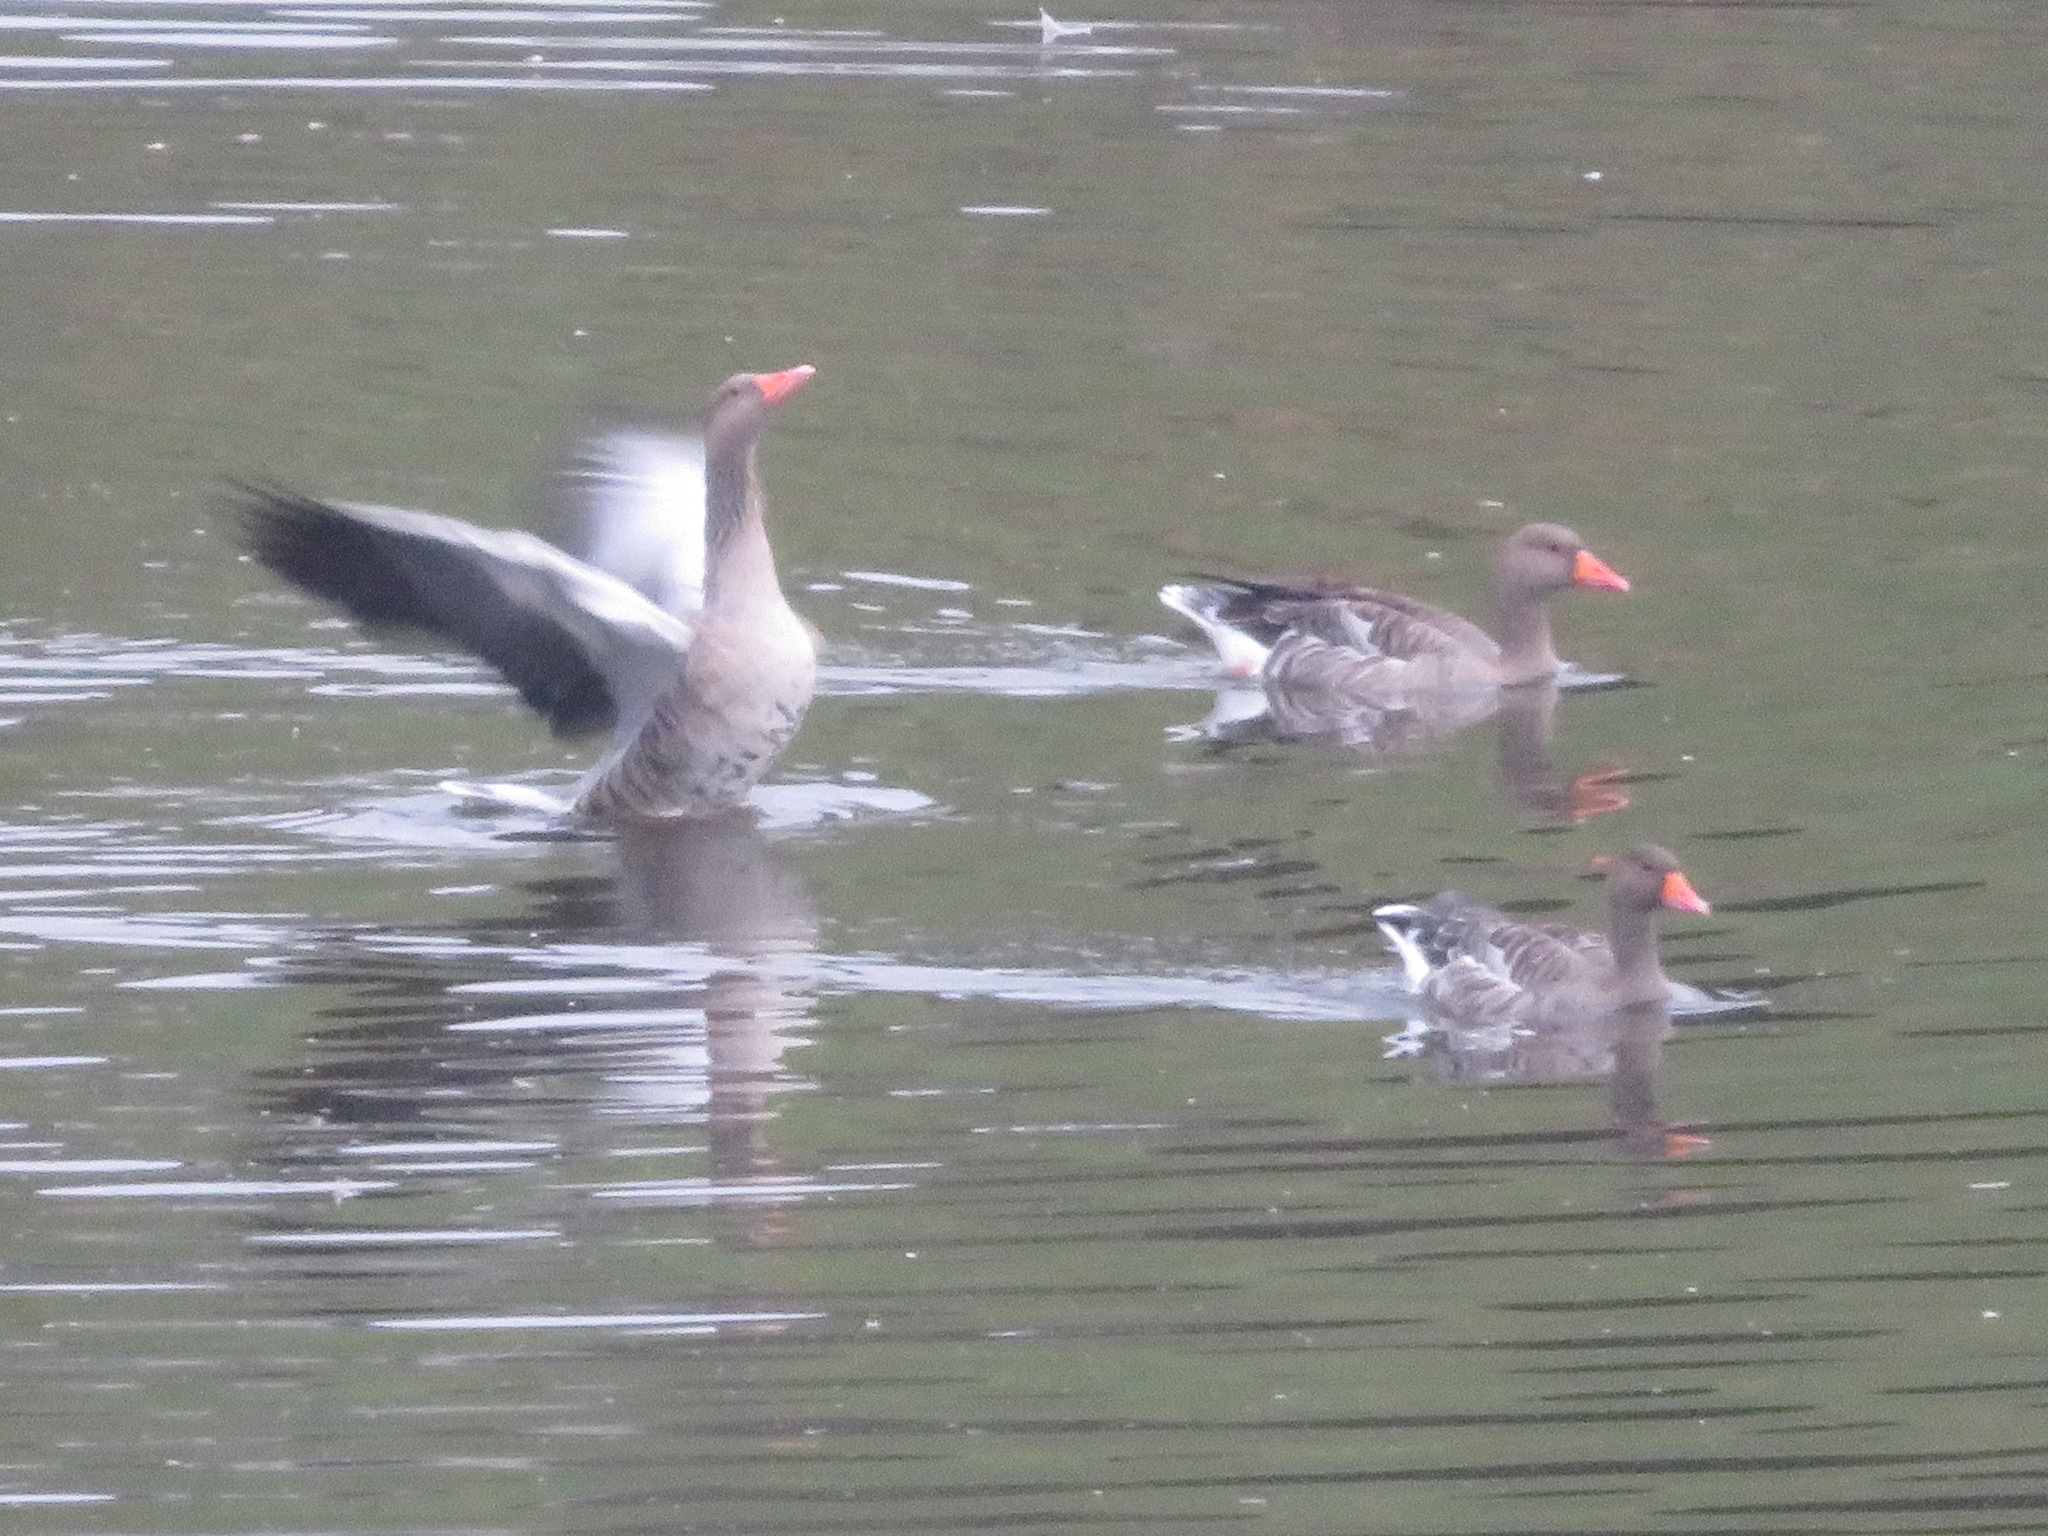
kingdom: Animalia
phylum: Chordata
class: Aves
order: Anseriformes
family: Anatidae
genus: Anser
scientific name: Anser anser
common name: Greylag goose
